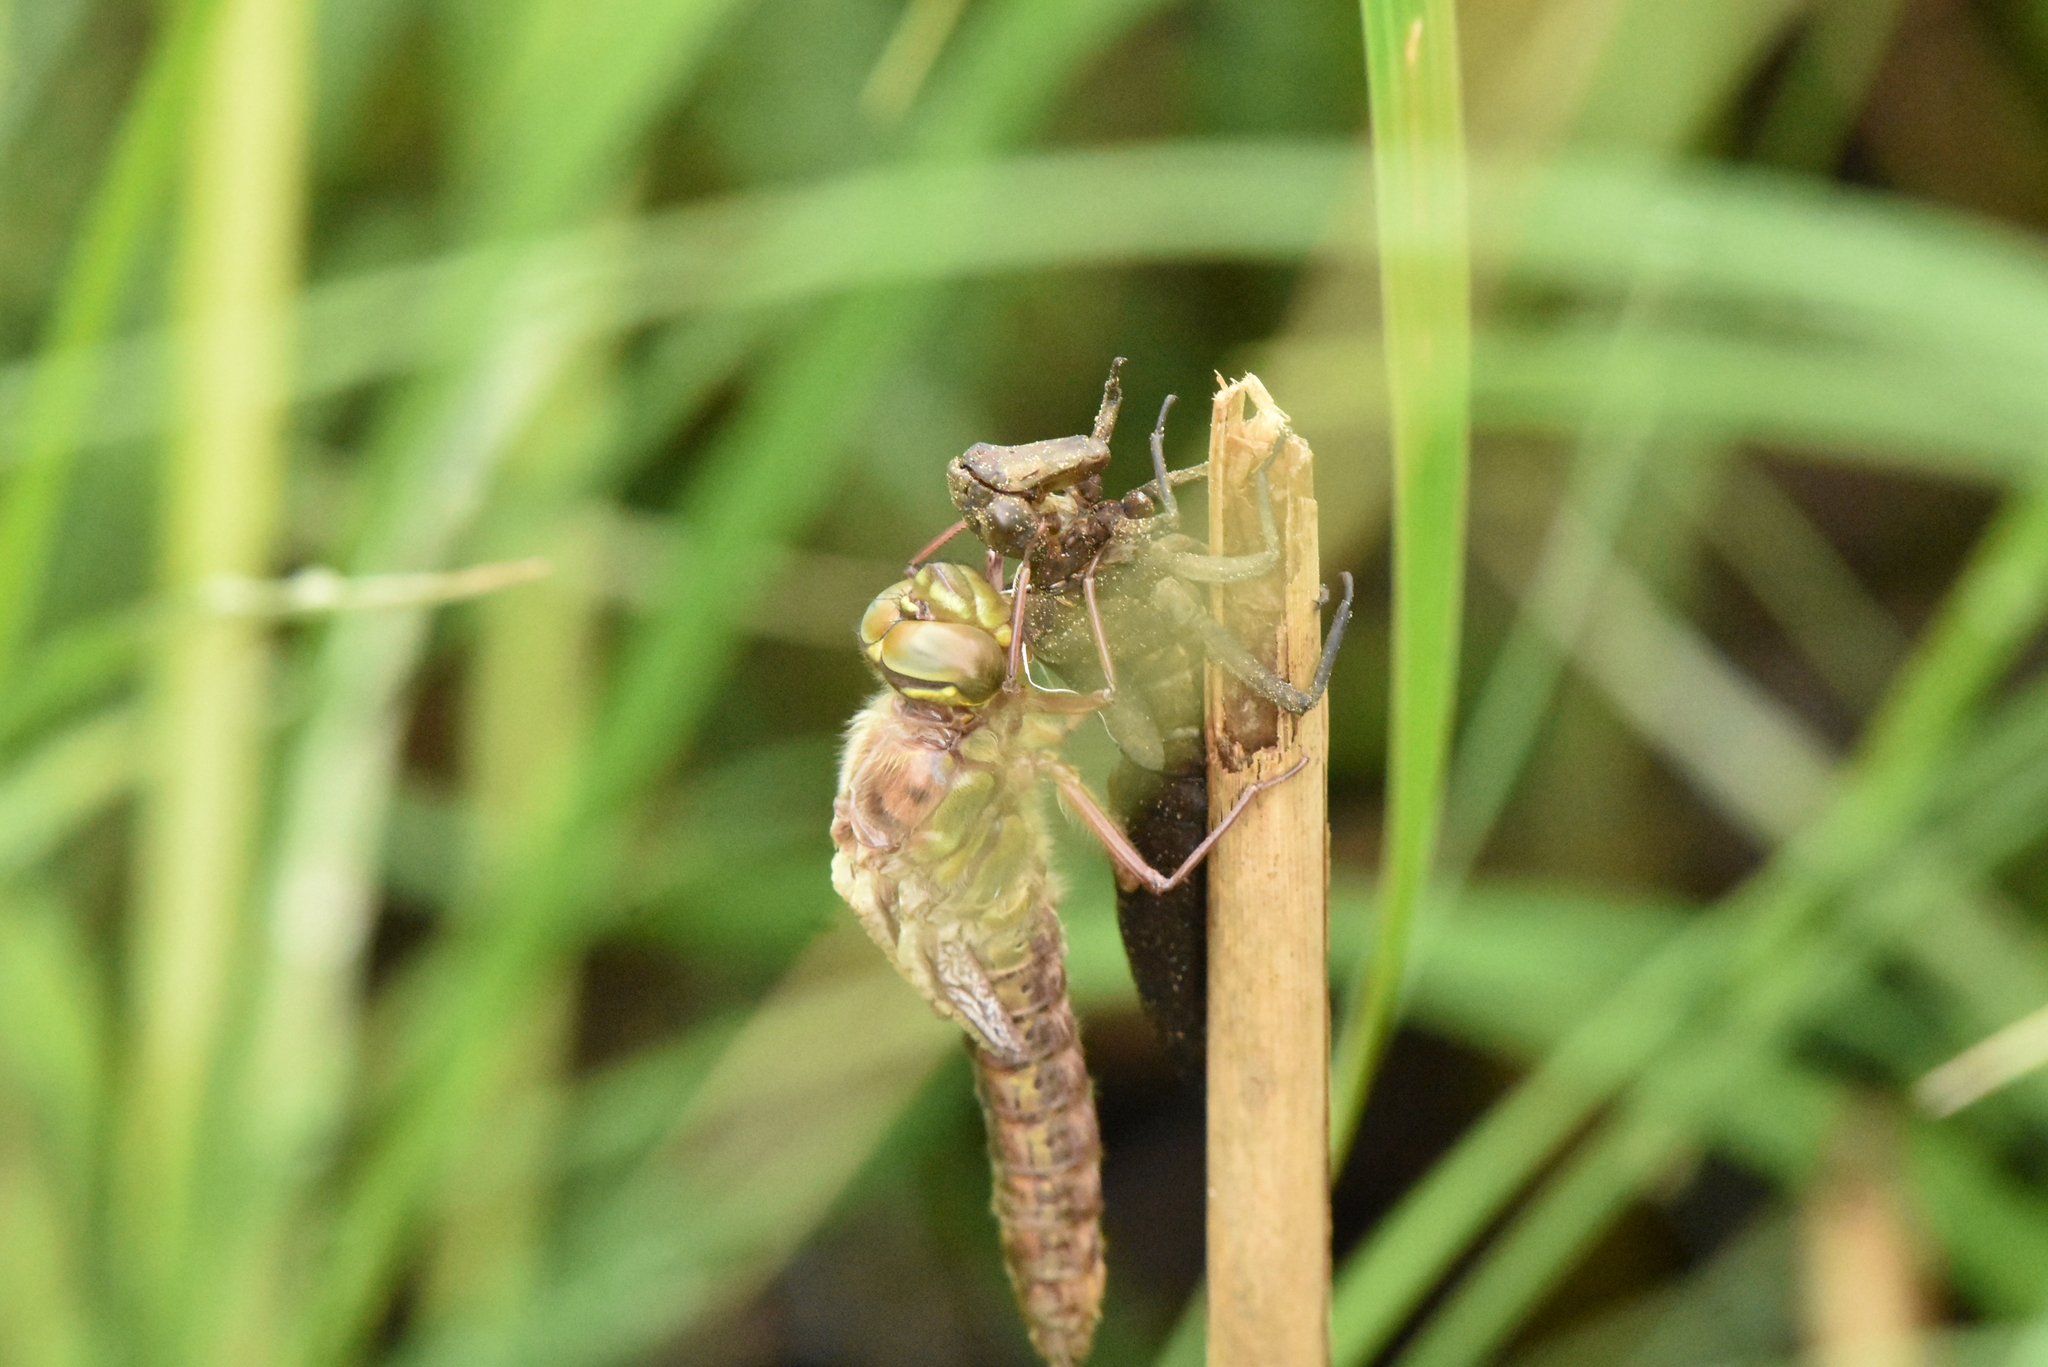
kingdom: Animalia
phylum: Arthropoda
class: Insecta
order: Odonata
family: Aeshnidae
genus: Brachytron
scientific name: Brachytron pratense
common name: Hairy hawker
